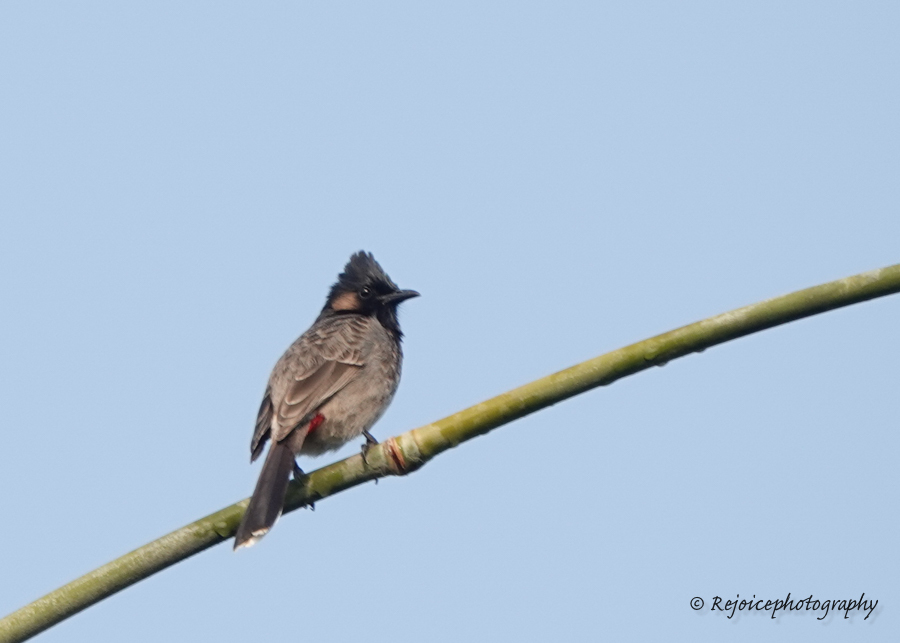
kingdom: Animalia
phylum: Chordata
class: Aves
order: Passeriformes
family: Pycnonotidae
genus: Pycnonotus
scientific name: Pycnonotus cafer
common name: Red-vented bulbul
